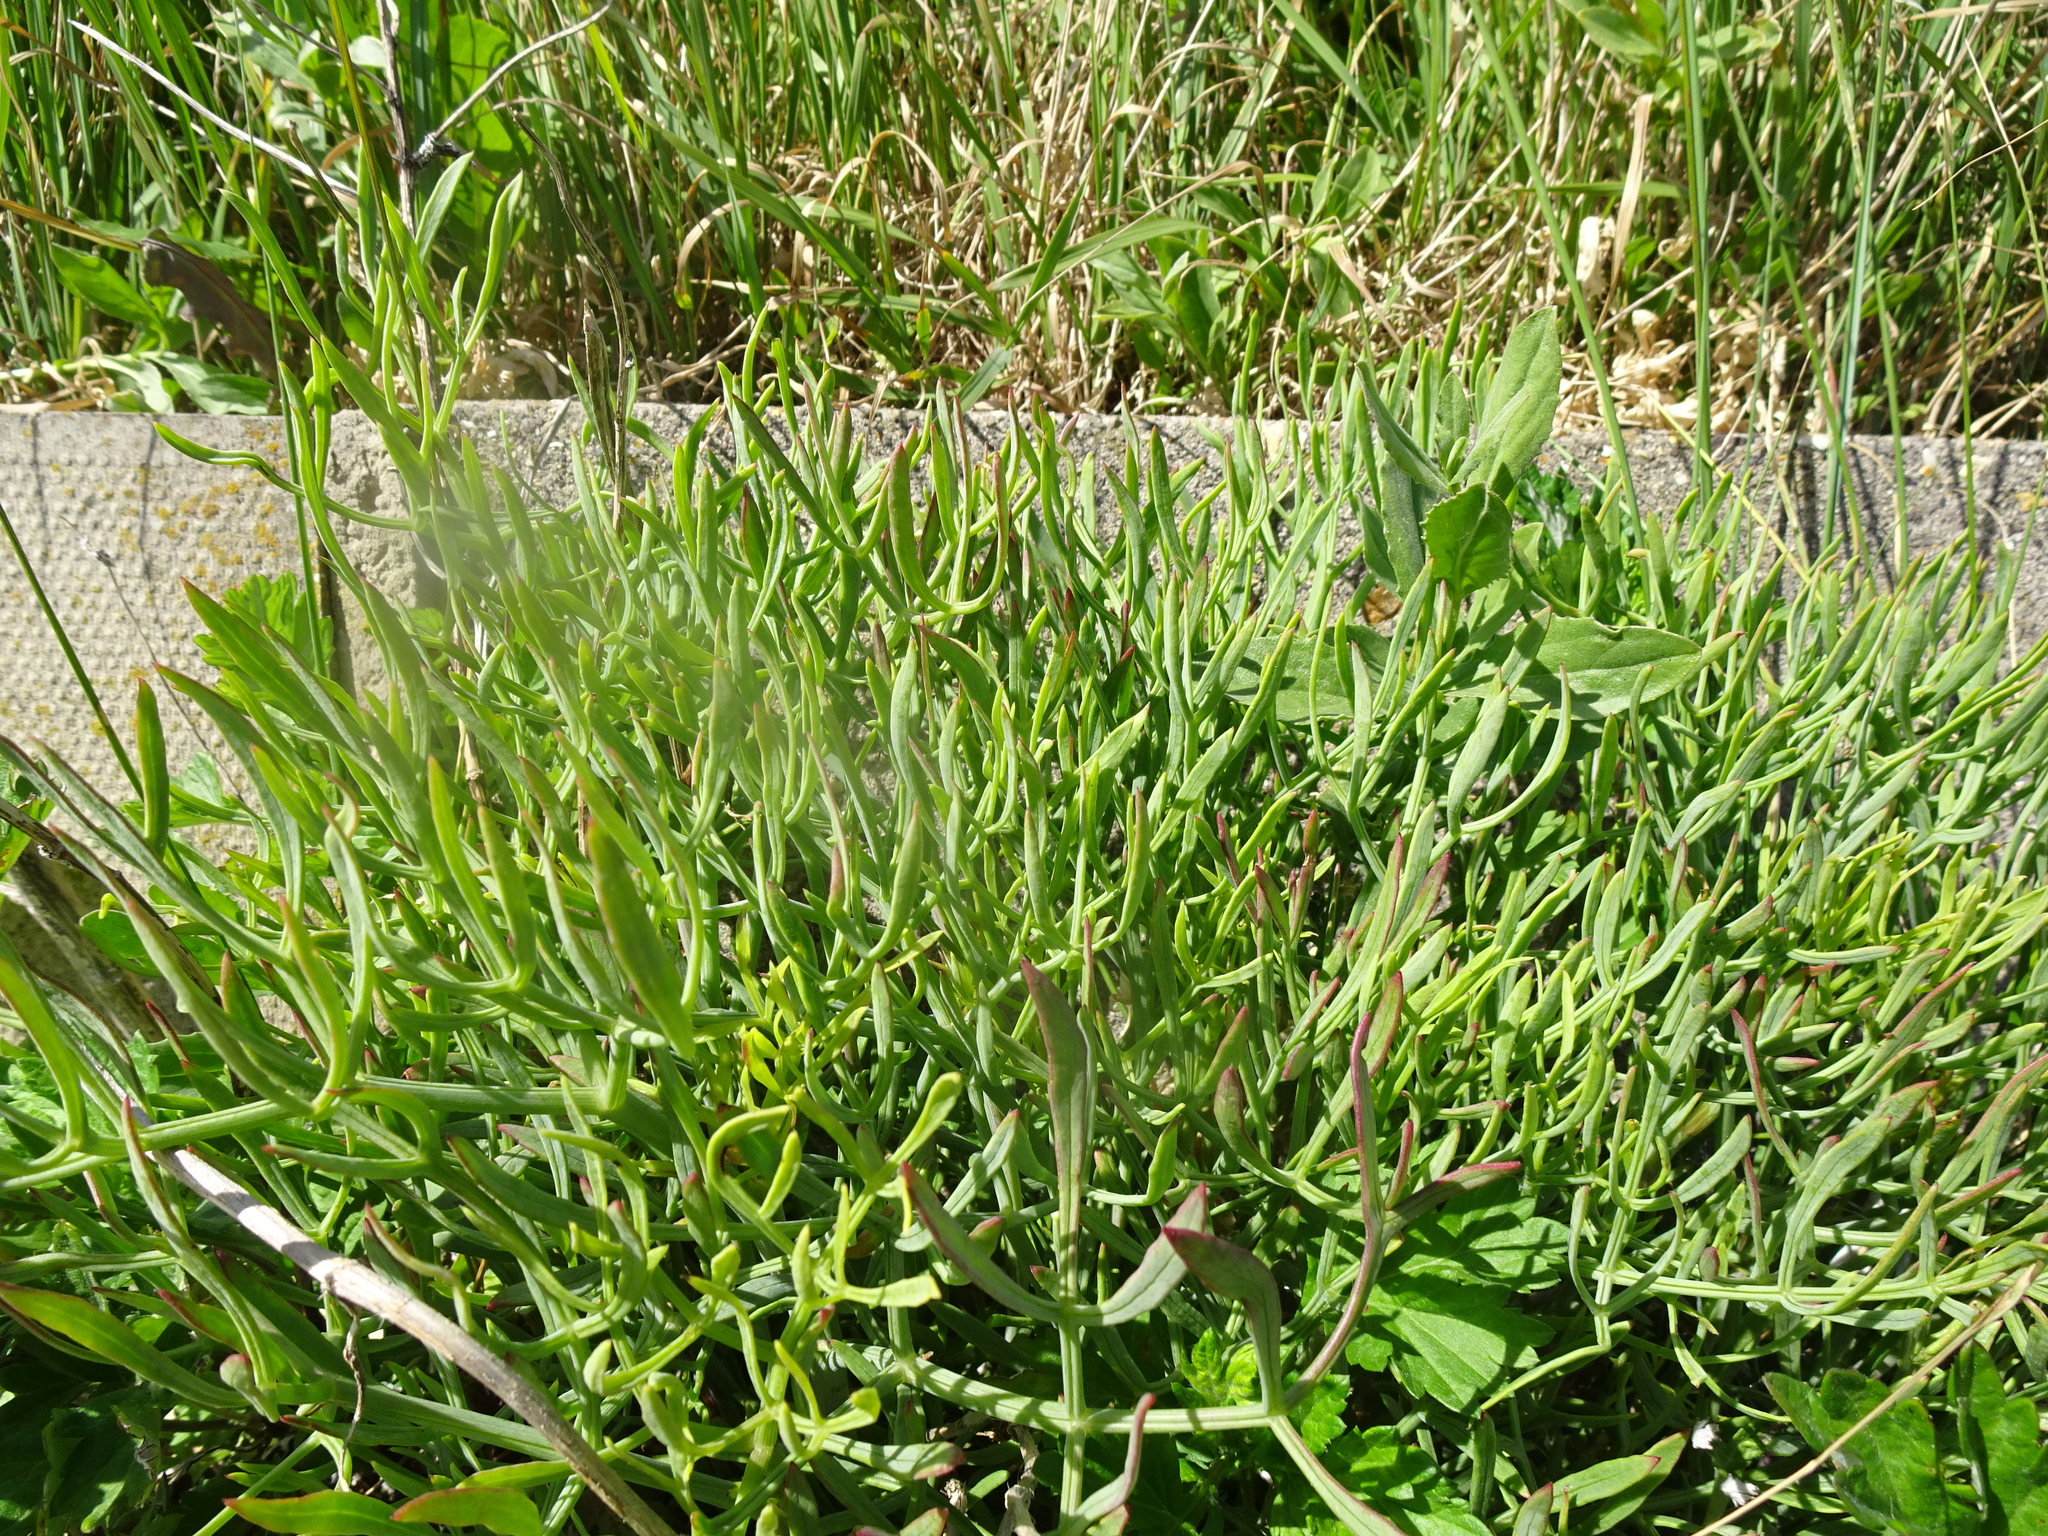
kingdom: Plantae
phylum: Tracheophyta
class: Magnoliopsida
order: Apiales
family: Apiaceae
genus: Crithmum
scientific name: Crithmum maritimum
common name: Rock samphire
